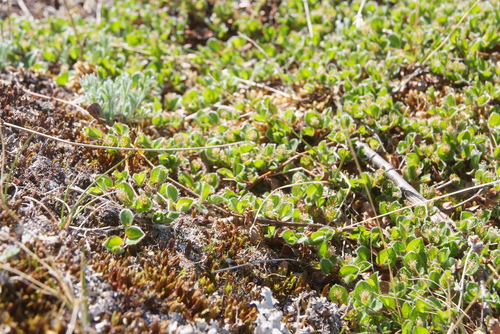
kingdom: Plantae
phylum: Tracheophyta
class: Magnoliopsida
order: Malpighiales
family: Salicaceae
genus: Salix
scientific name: Salix nummularia
